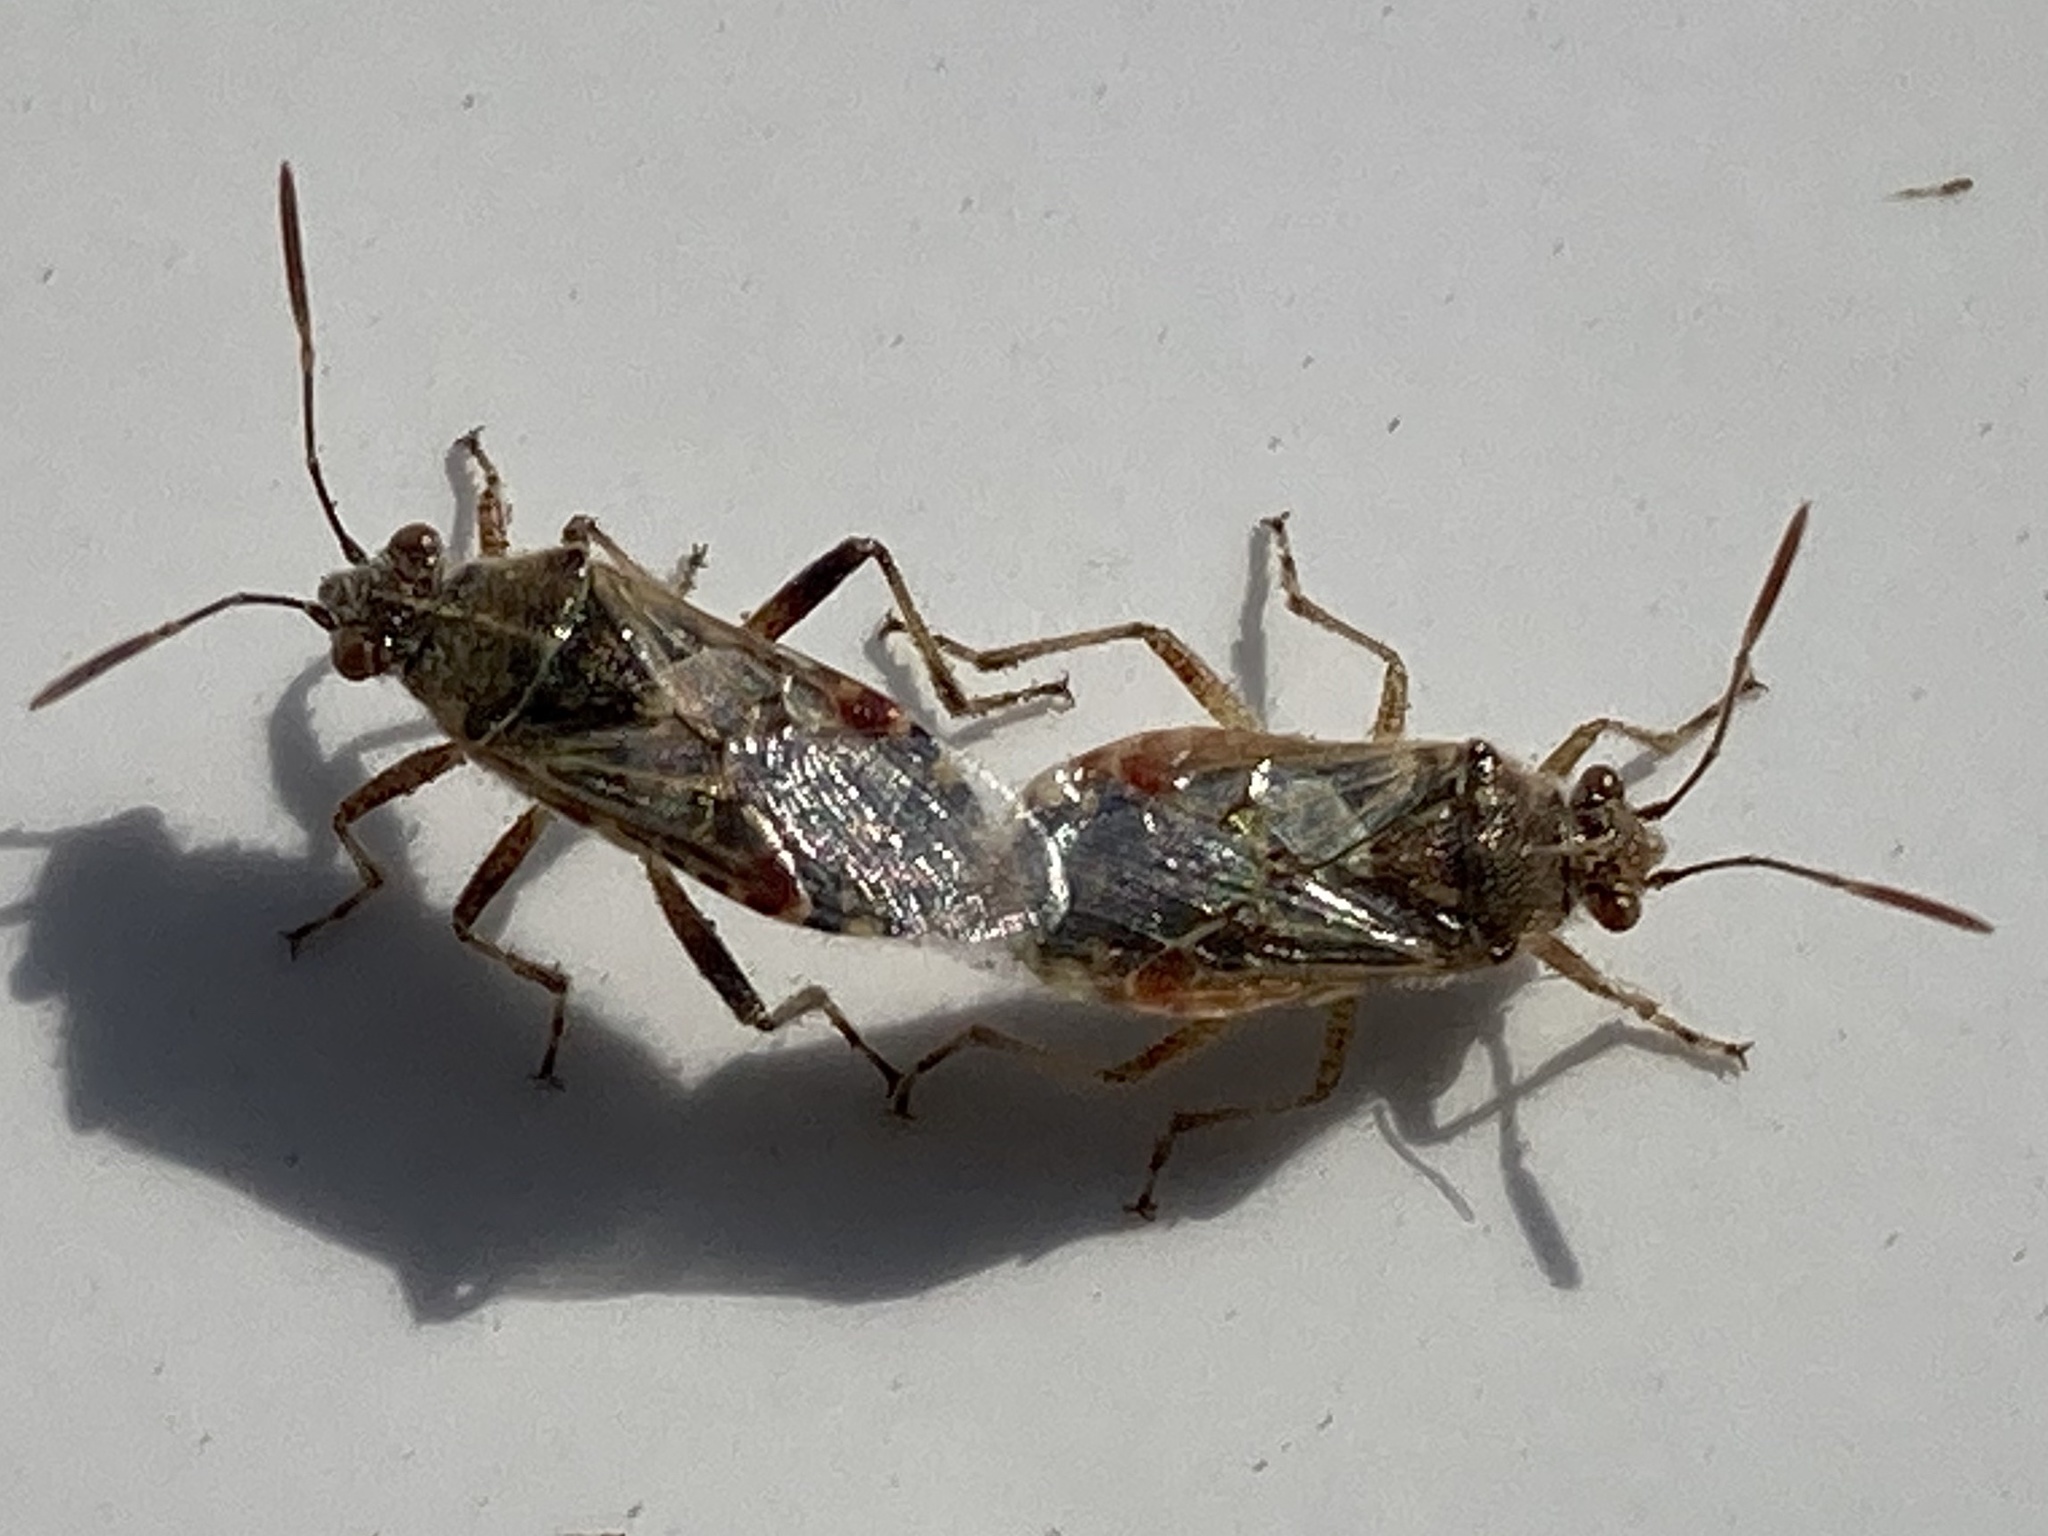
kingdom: Animalia
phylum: Arthropoda
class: Insecta
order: Hemiptera
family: Rhopalidae
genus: Liorhyssus
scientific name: Liorhyssus hyalinus
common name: Scentless plant bug
